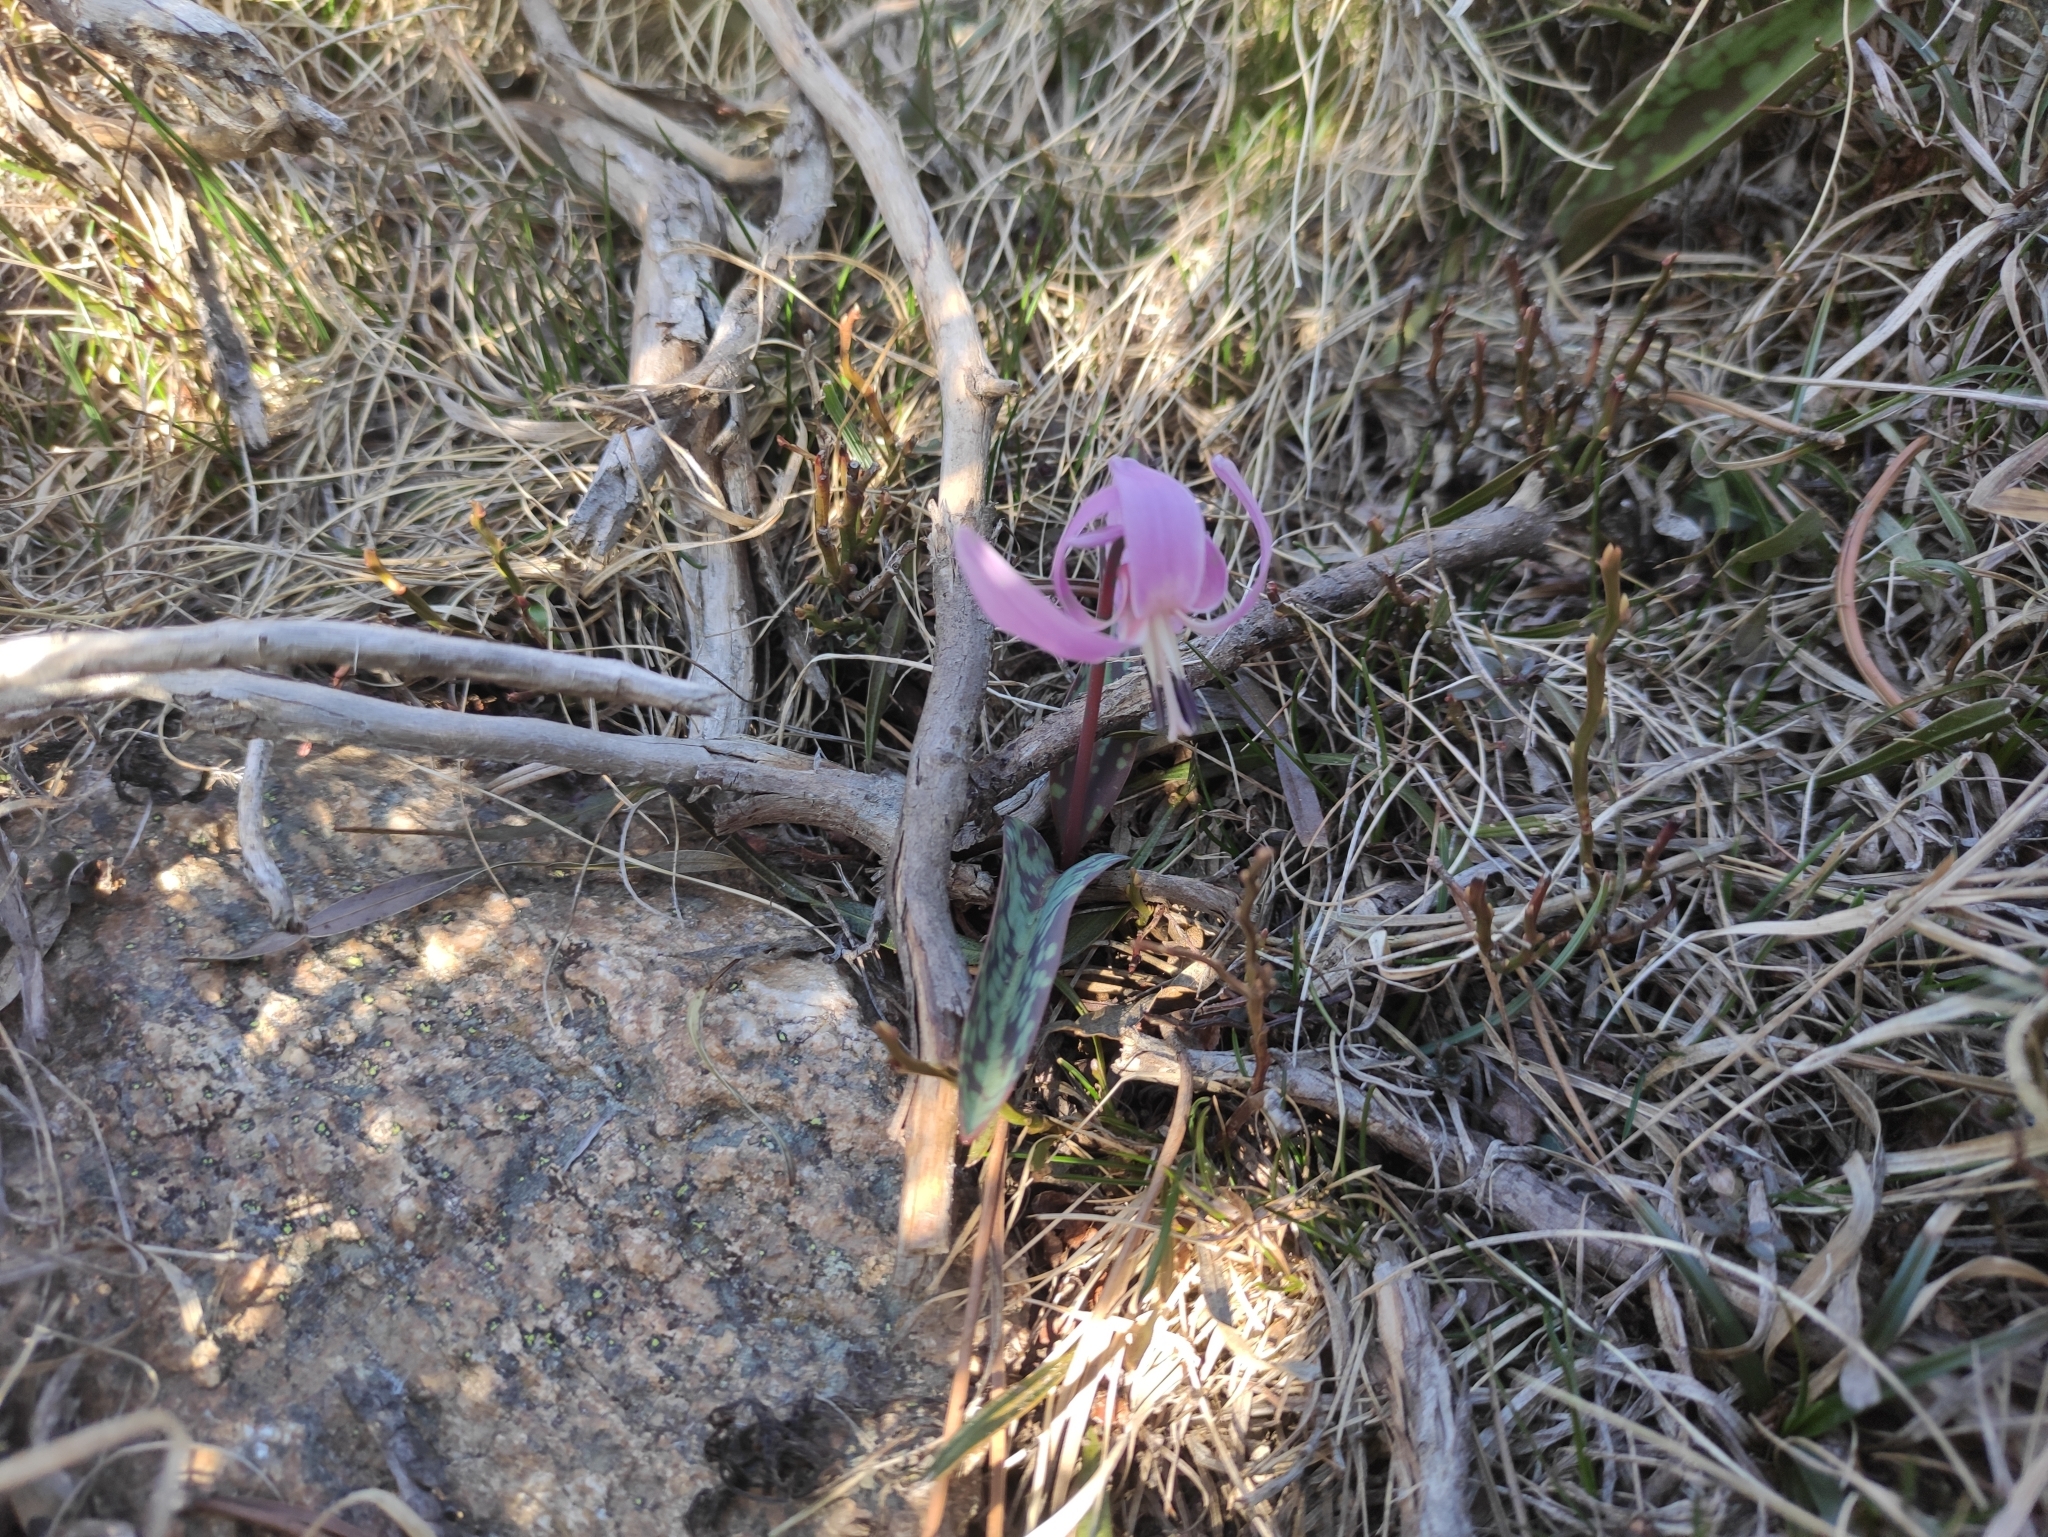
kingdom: Plantae
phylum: Tracheophyta
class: Liliopsida
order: Liliales
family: Liliaceae
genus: Erythronium
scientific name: Erythronium dens-canis
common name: Dog's-tooth-violet
